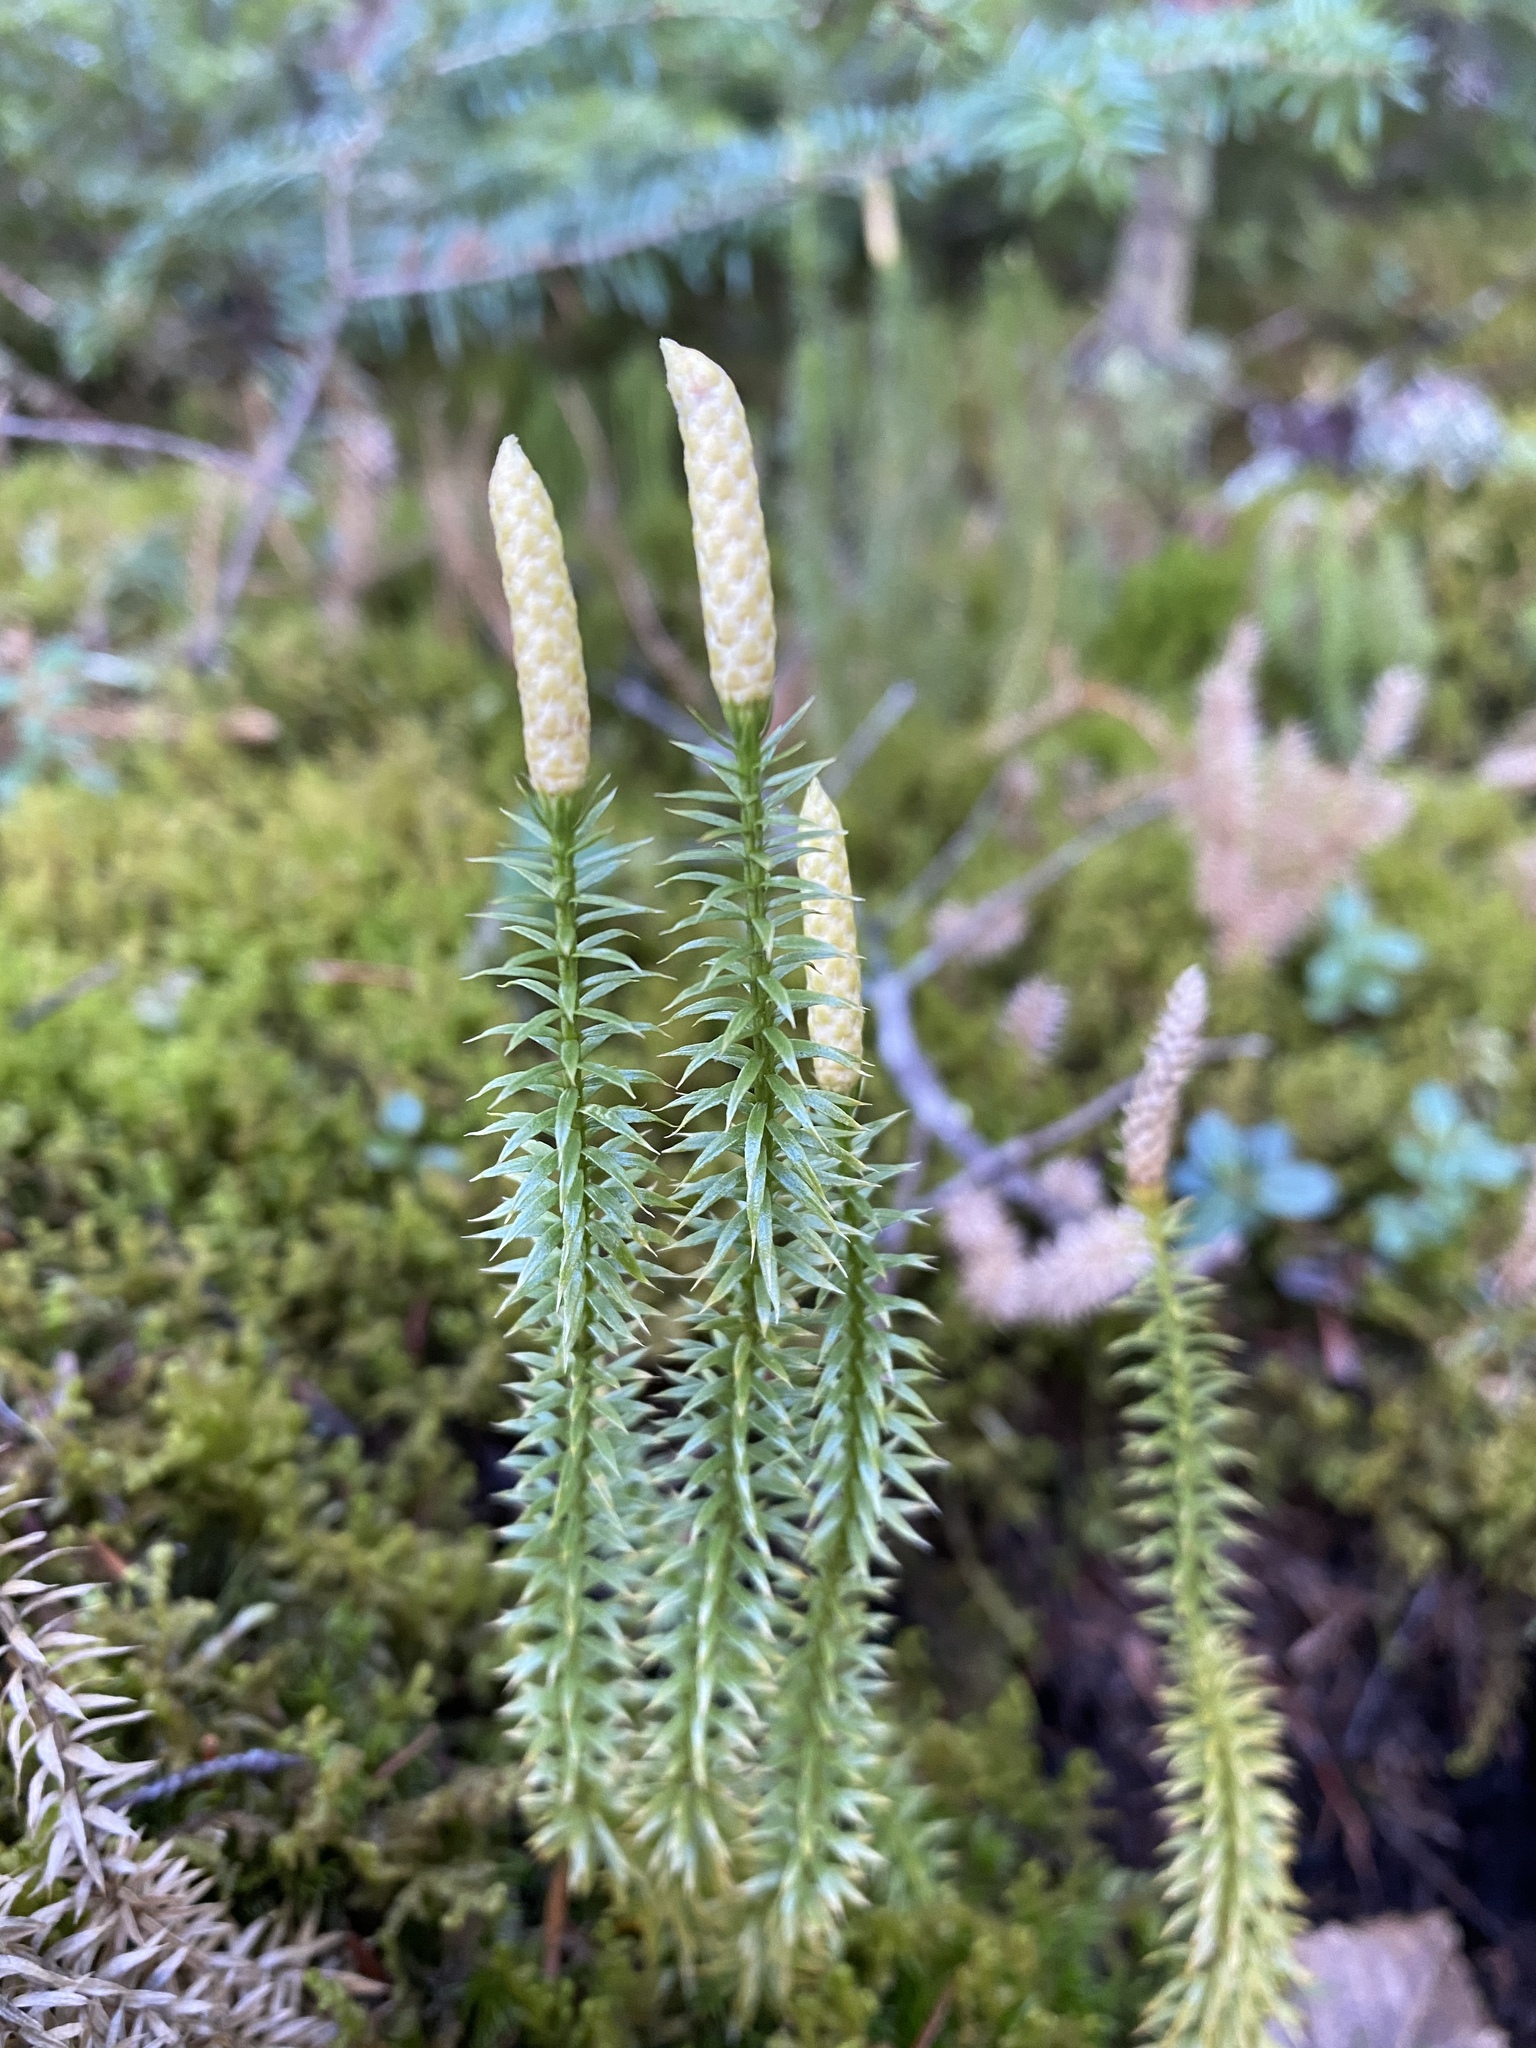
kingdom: Plantae
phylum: Tracheophyta
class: Lycopodiopsida
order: Lycopodiales
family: Lycopodiaceae
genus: Spinulum
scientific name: Spinulum annotinum
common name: Interrupted club-moss
